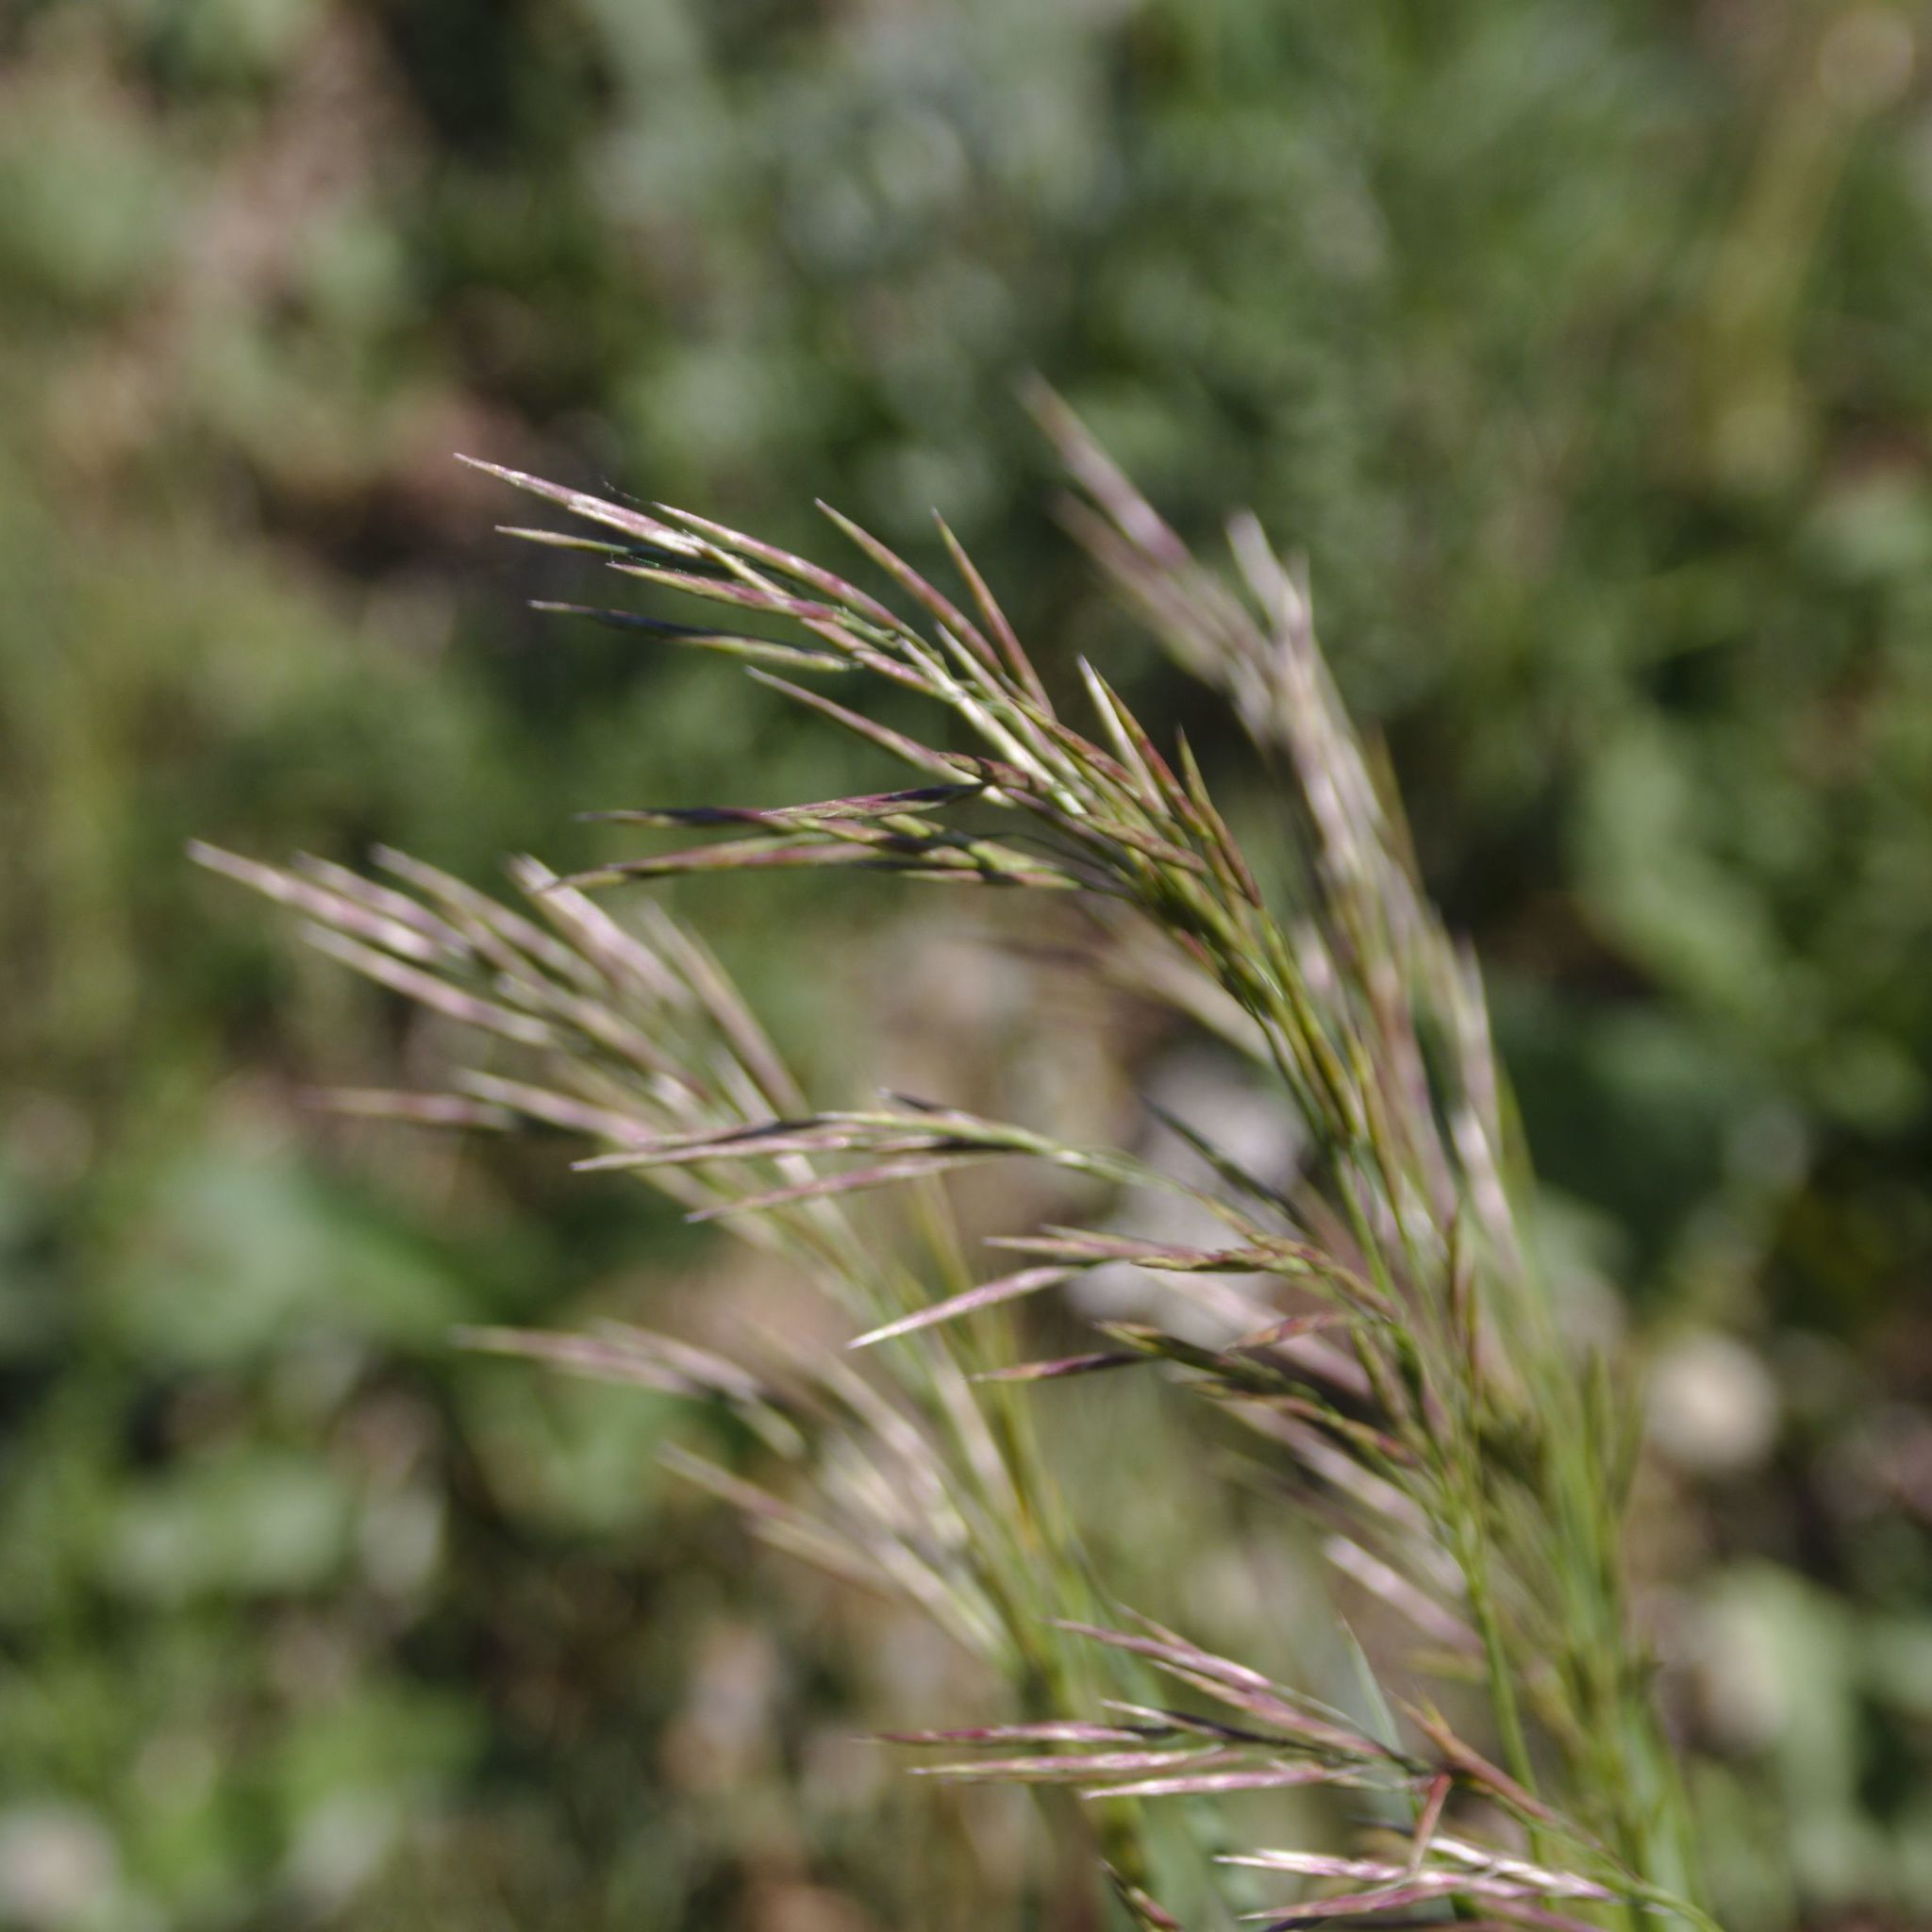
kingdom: Plantae
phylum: Tracheophyta
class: Liliopsida
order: Poales
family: Poaceae
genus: Bromus
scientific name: Bromus inermis
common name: Smooth brome
